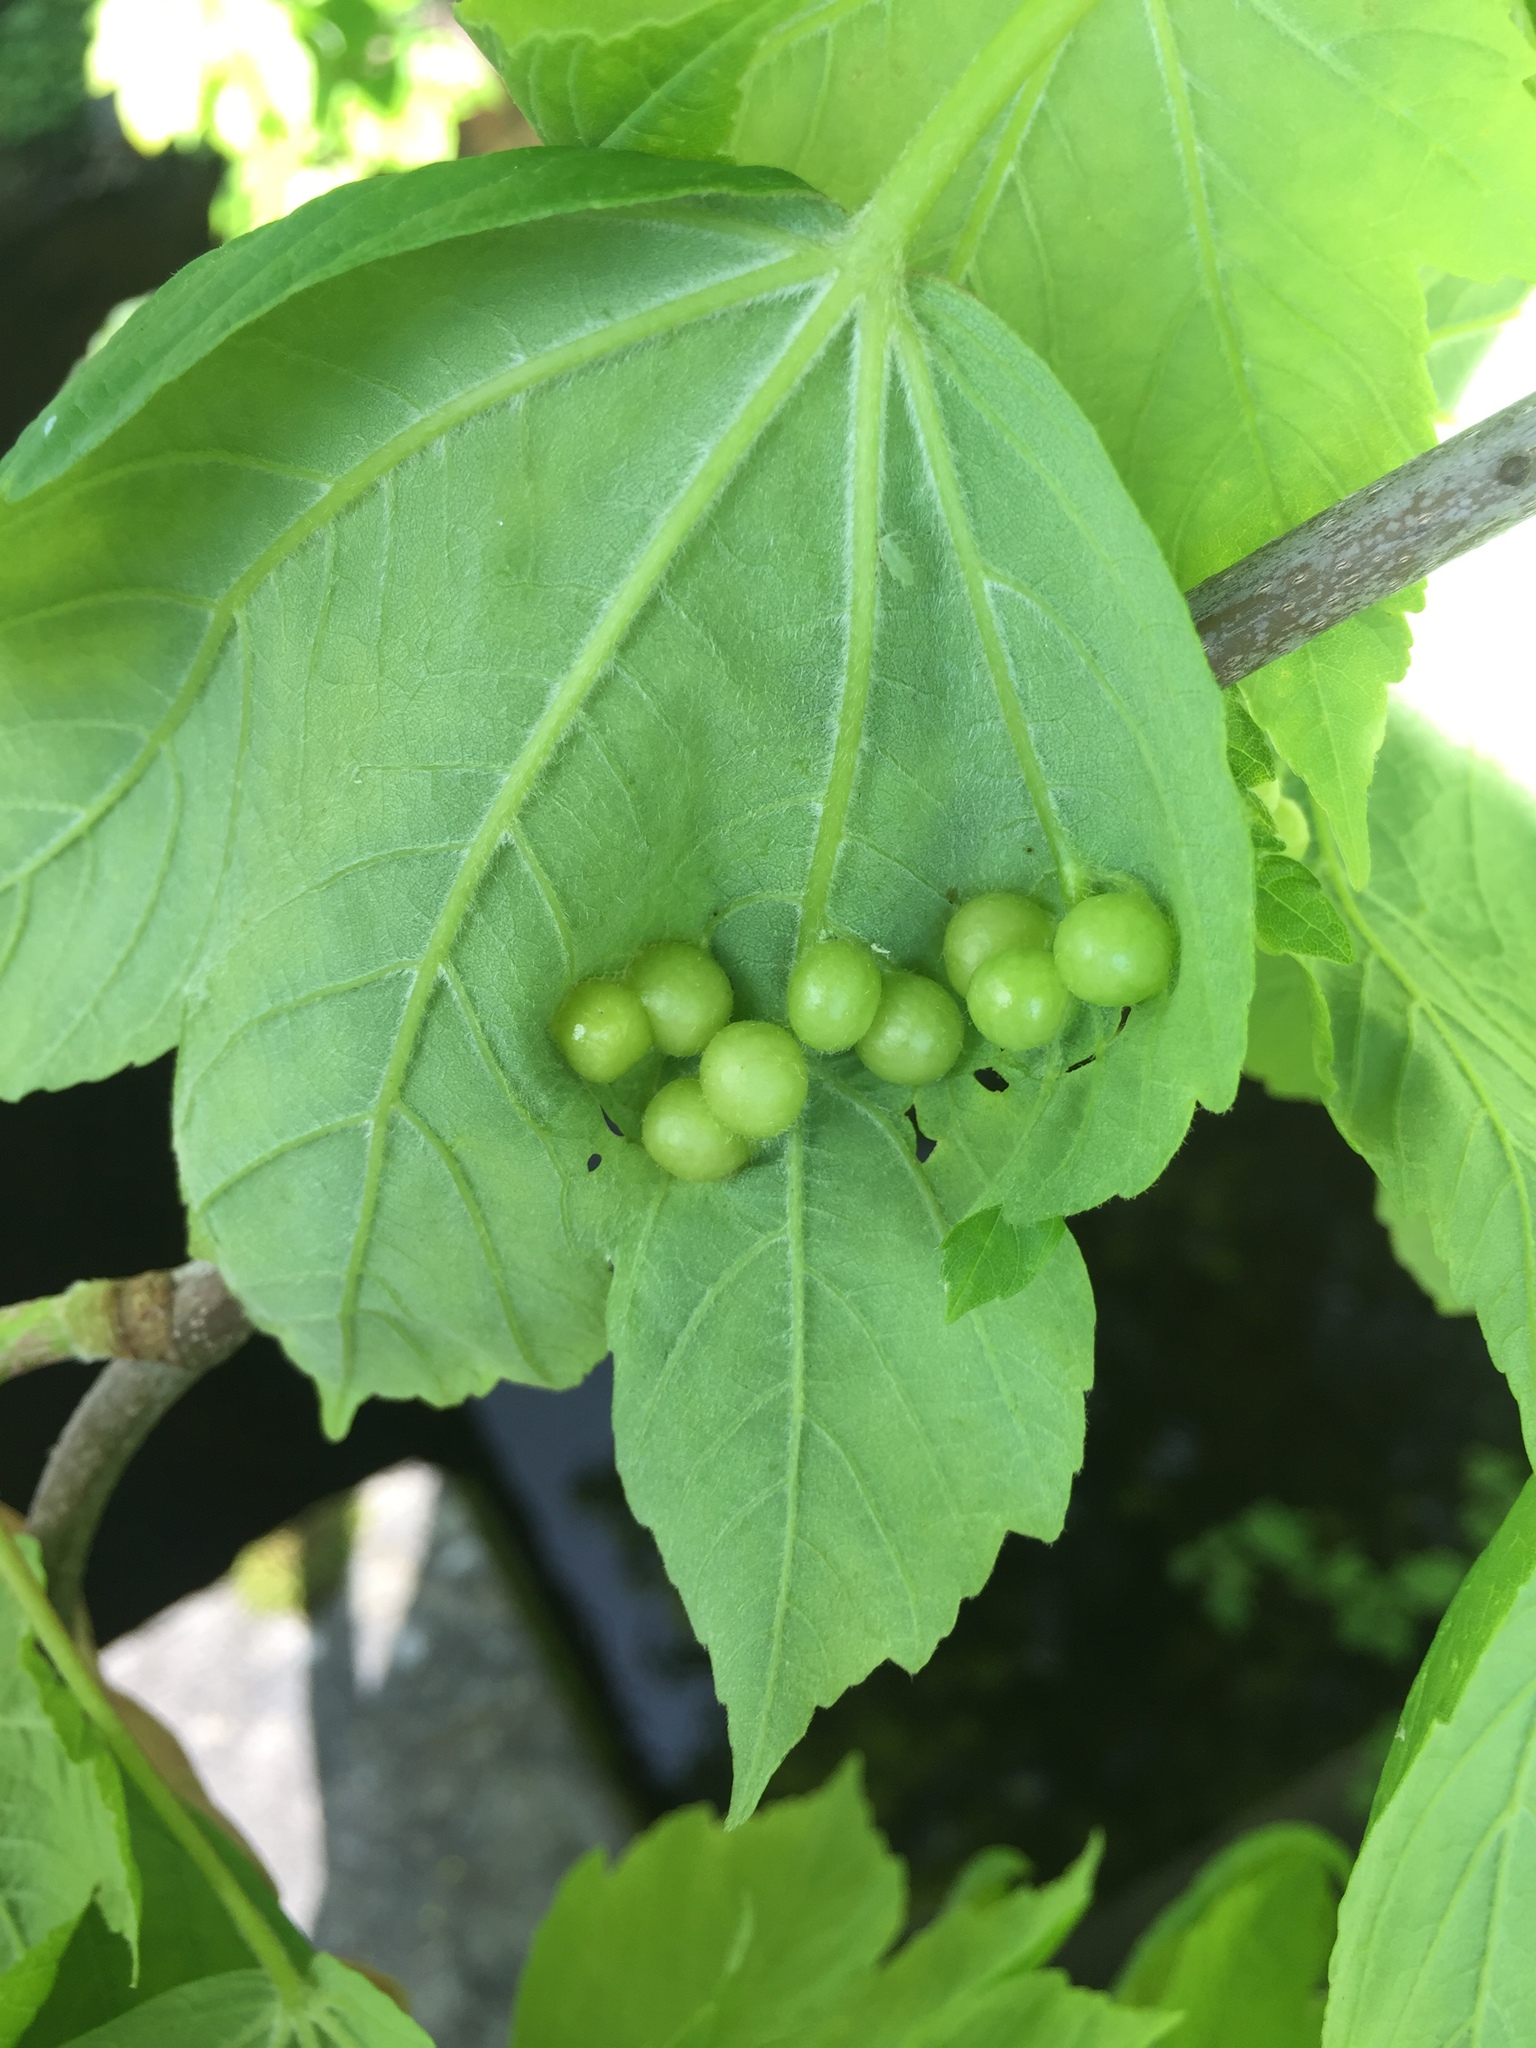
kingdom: Animalia
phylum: Arthropoda
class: Insecta
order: Hymenoptera
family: Cynipidae
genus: Pediaspis
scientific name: Pediaspis aceris
